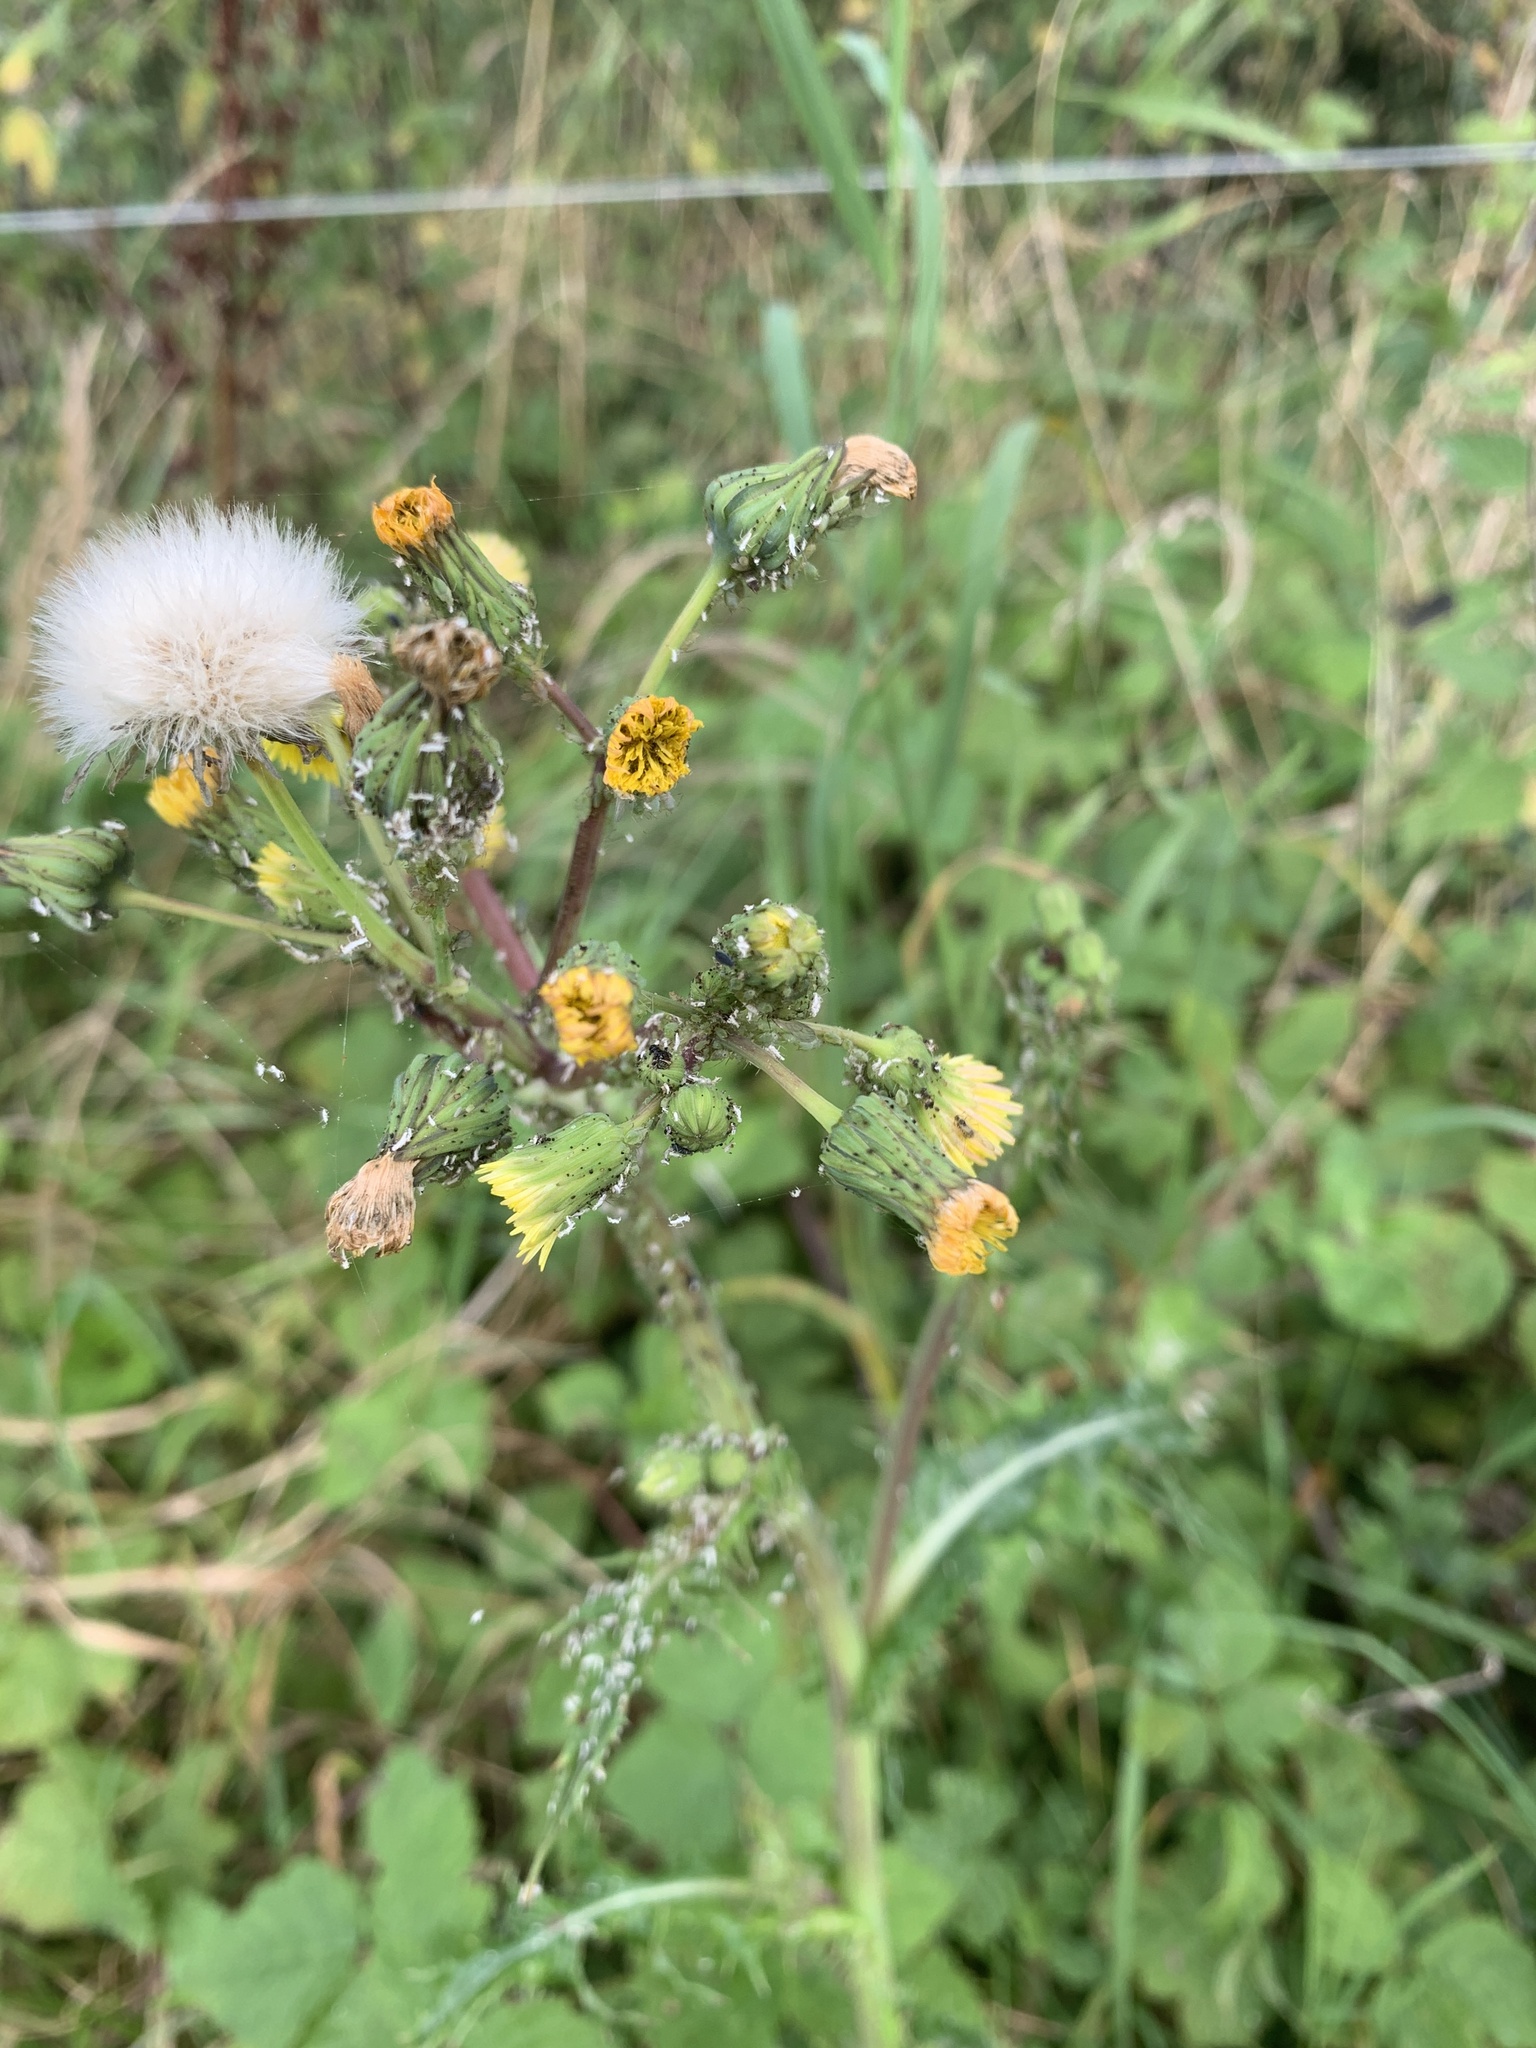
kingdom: Plantae
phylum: Tracheophyta
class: Magnoliopsida
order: Asterales
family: Asteraceae
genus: Sonchus
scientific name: Sonchus asper
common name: Prickly sow-thistle
